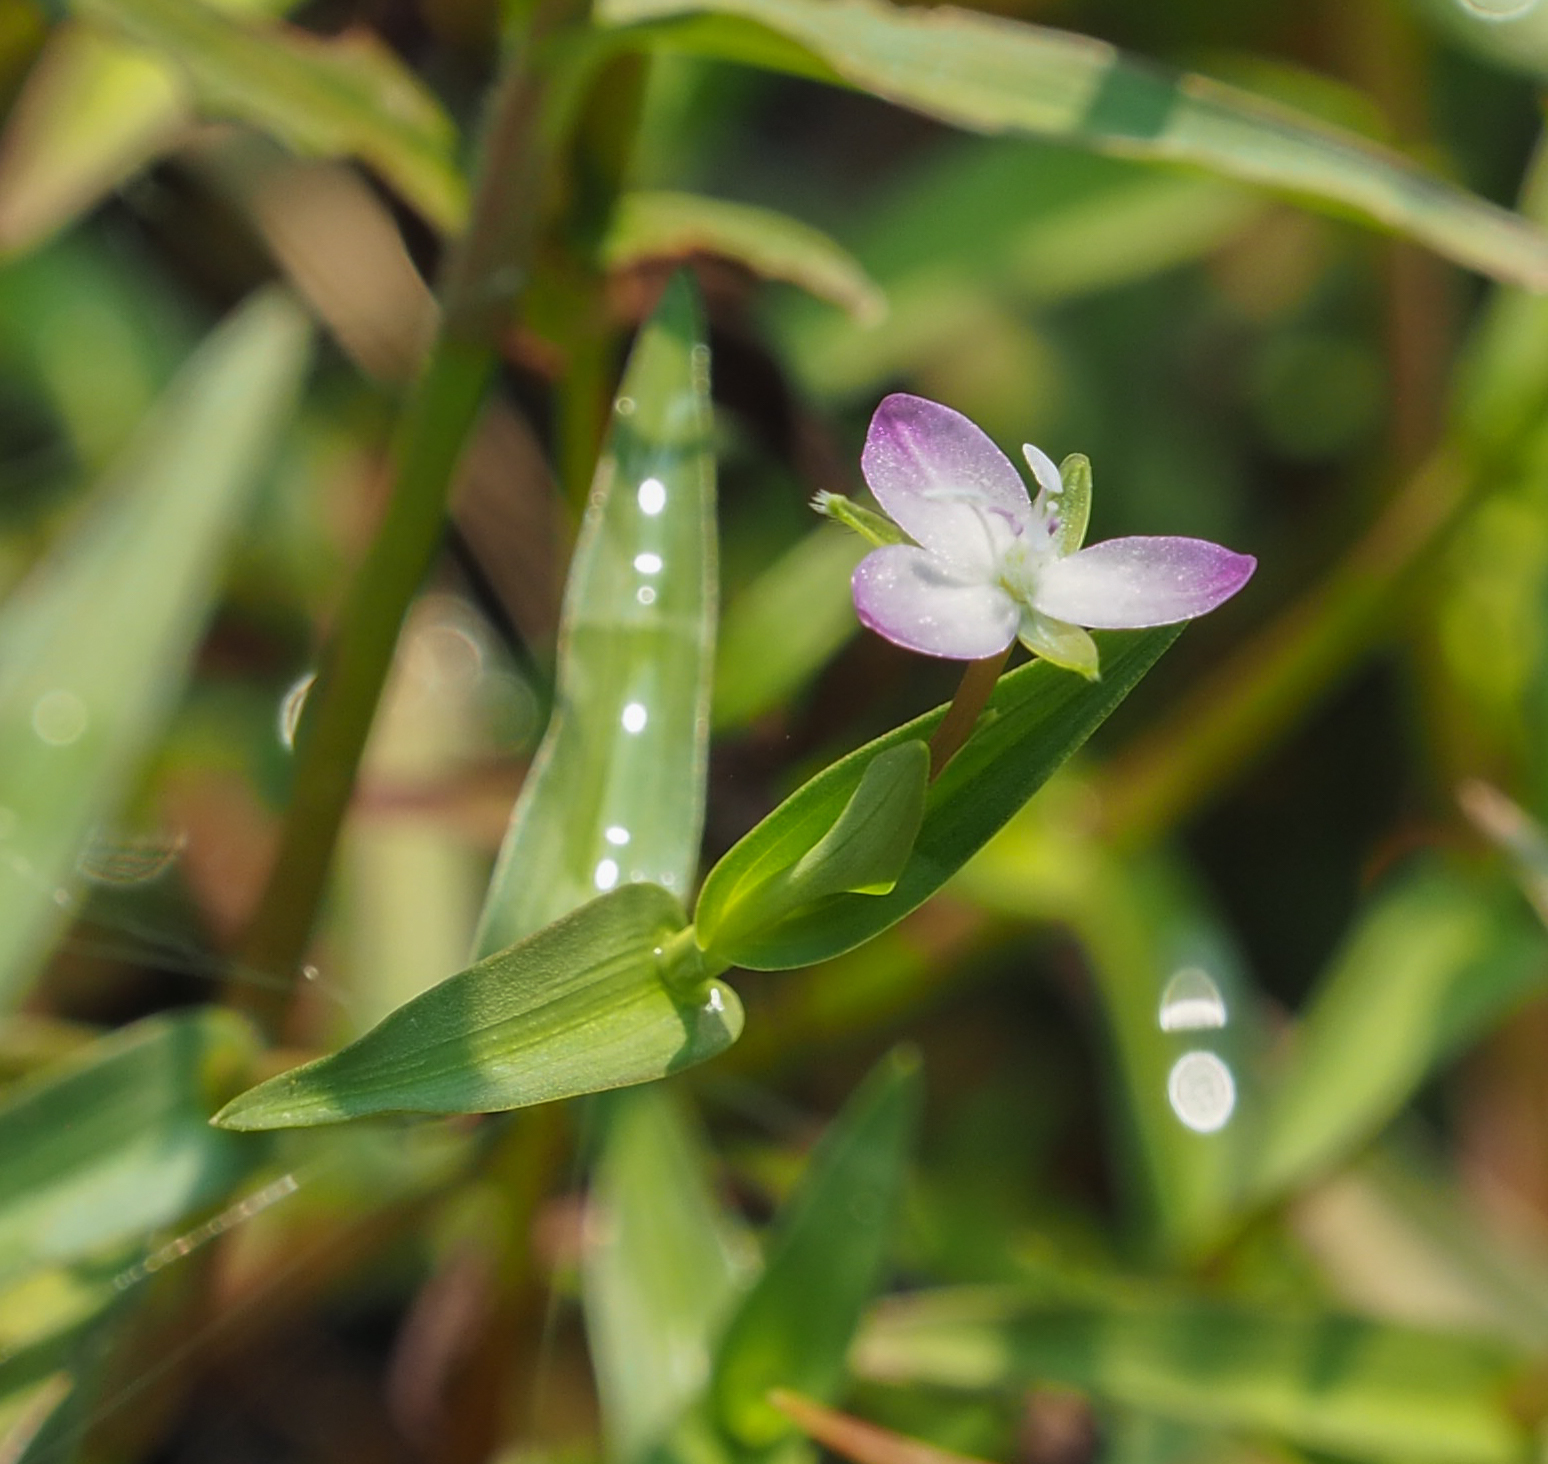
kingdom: Plantae
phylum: Tracheophyta
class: Liliopsida
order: Commelinales
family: Commelinaceae
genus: Murdannia
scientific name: Murdannia keisak
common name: Wartremoving herb
